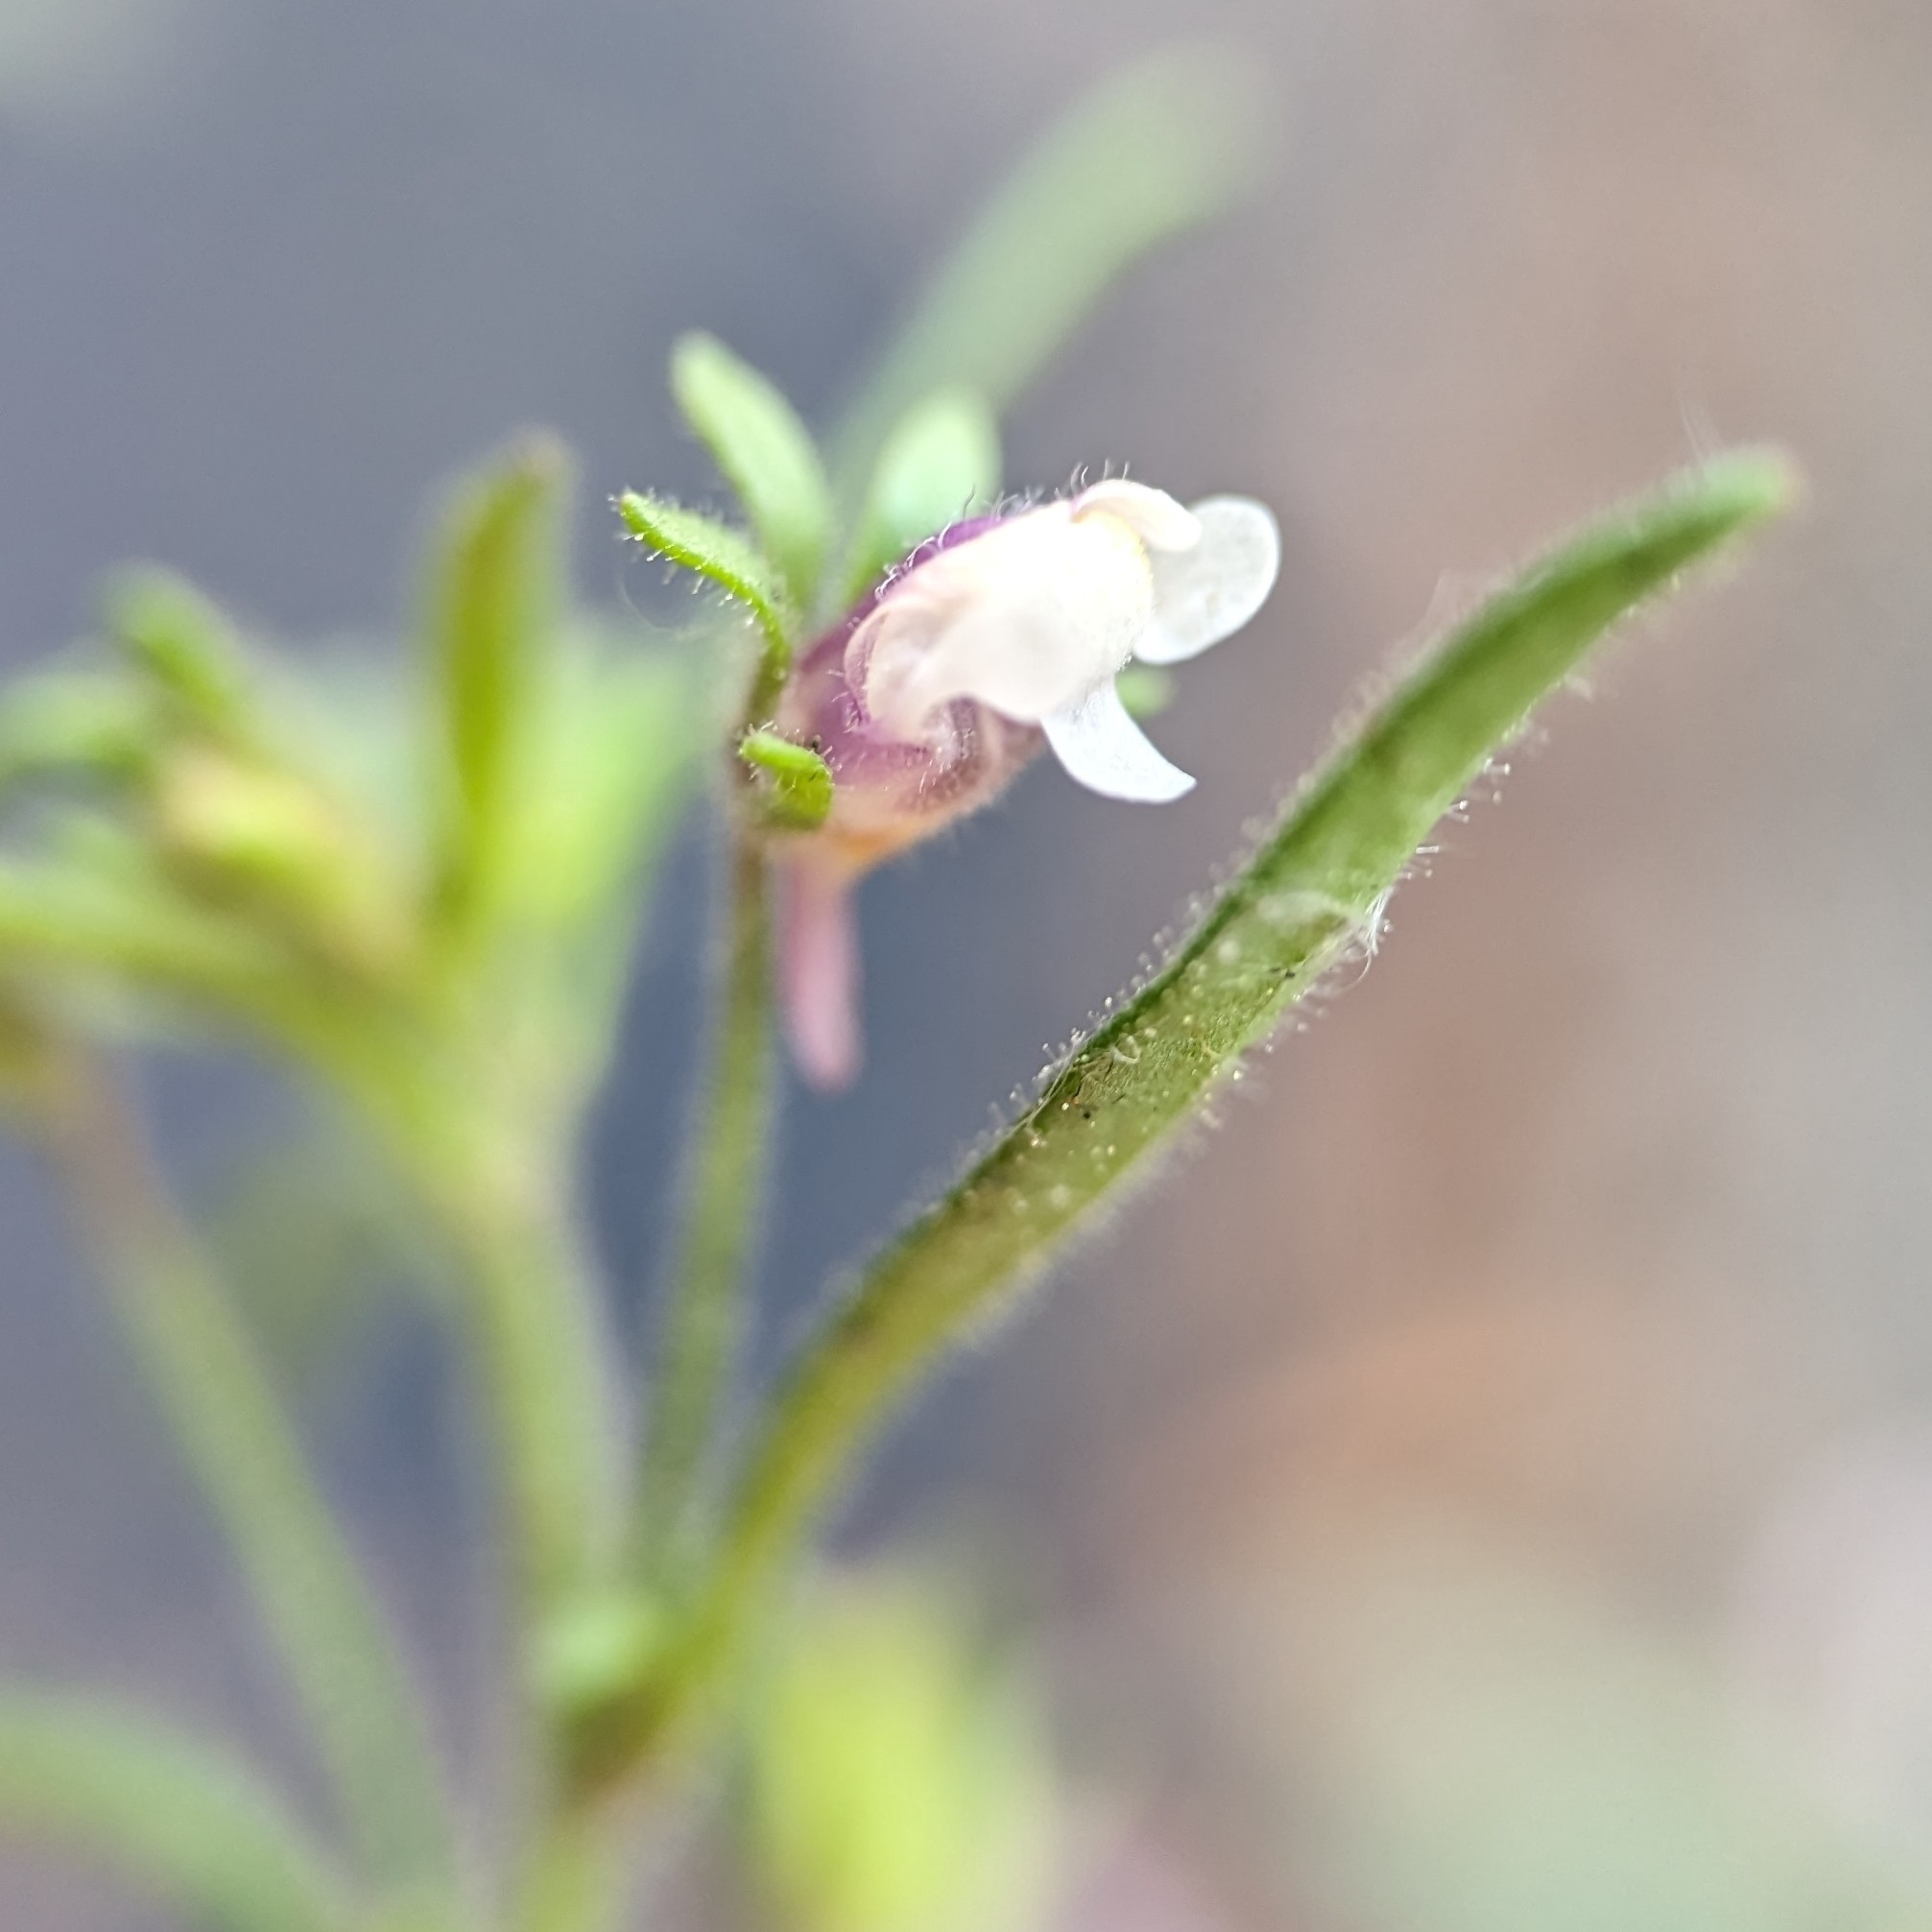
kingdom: Plantae
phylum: Tracheophyta
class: Magnoliopsida
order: Lamiales
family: Plantaginaceae
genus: Chaenorhinum
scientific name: Chaenorhinum minus
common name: Dwarf snapdragon
